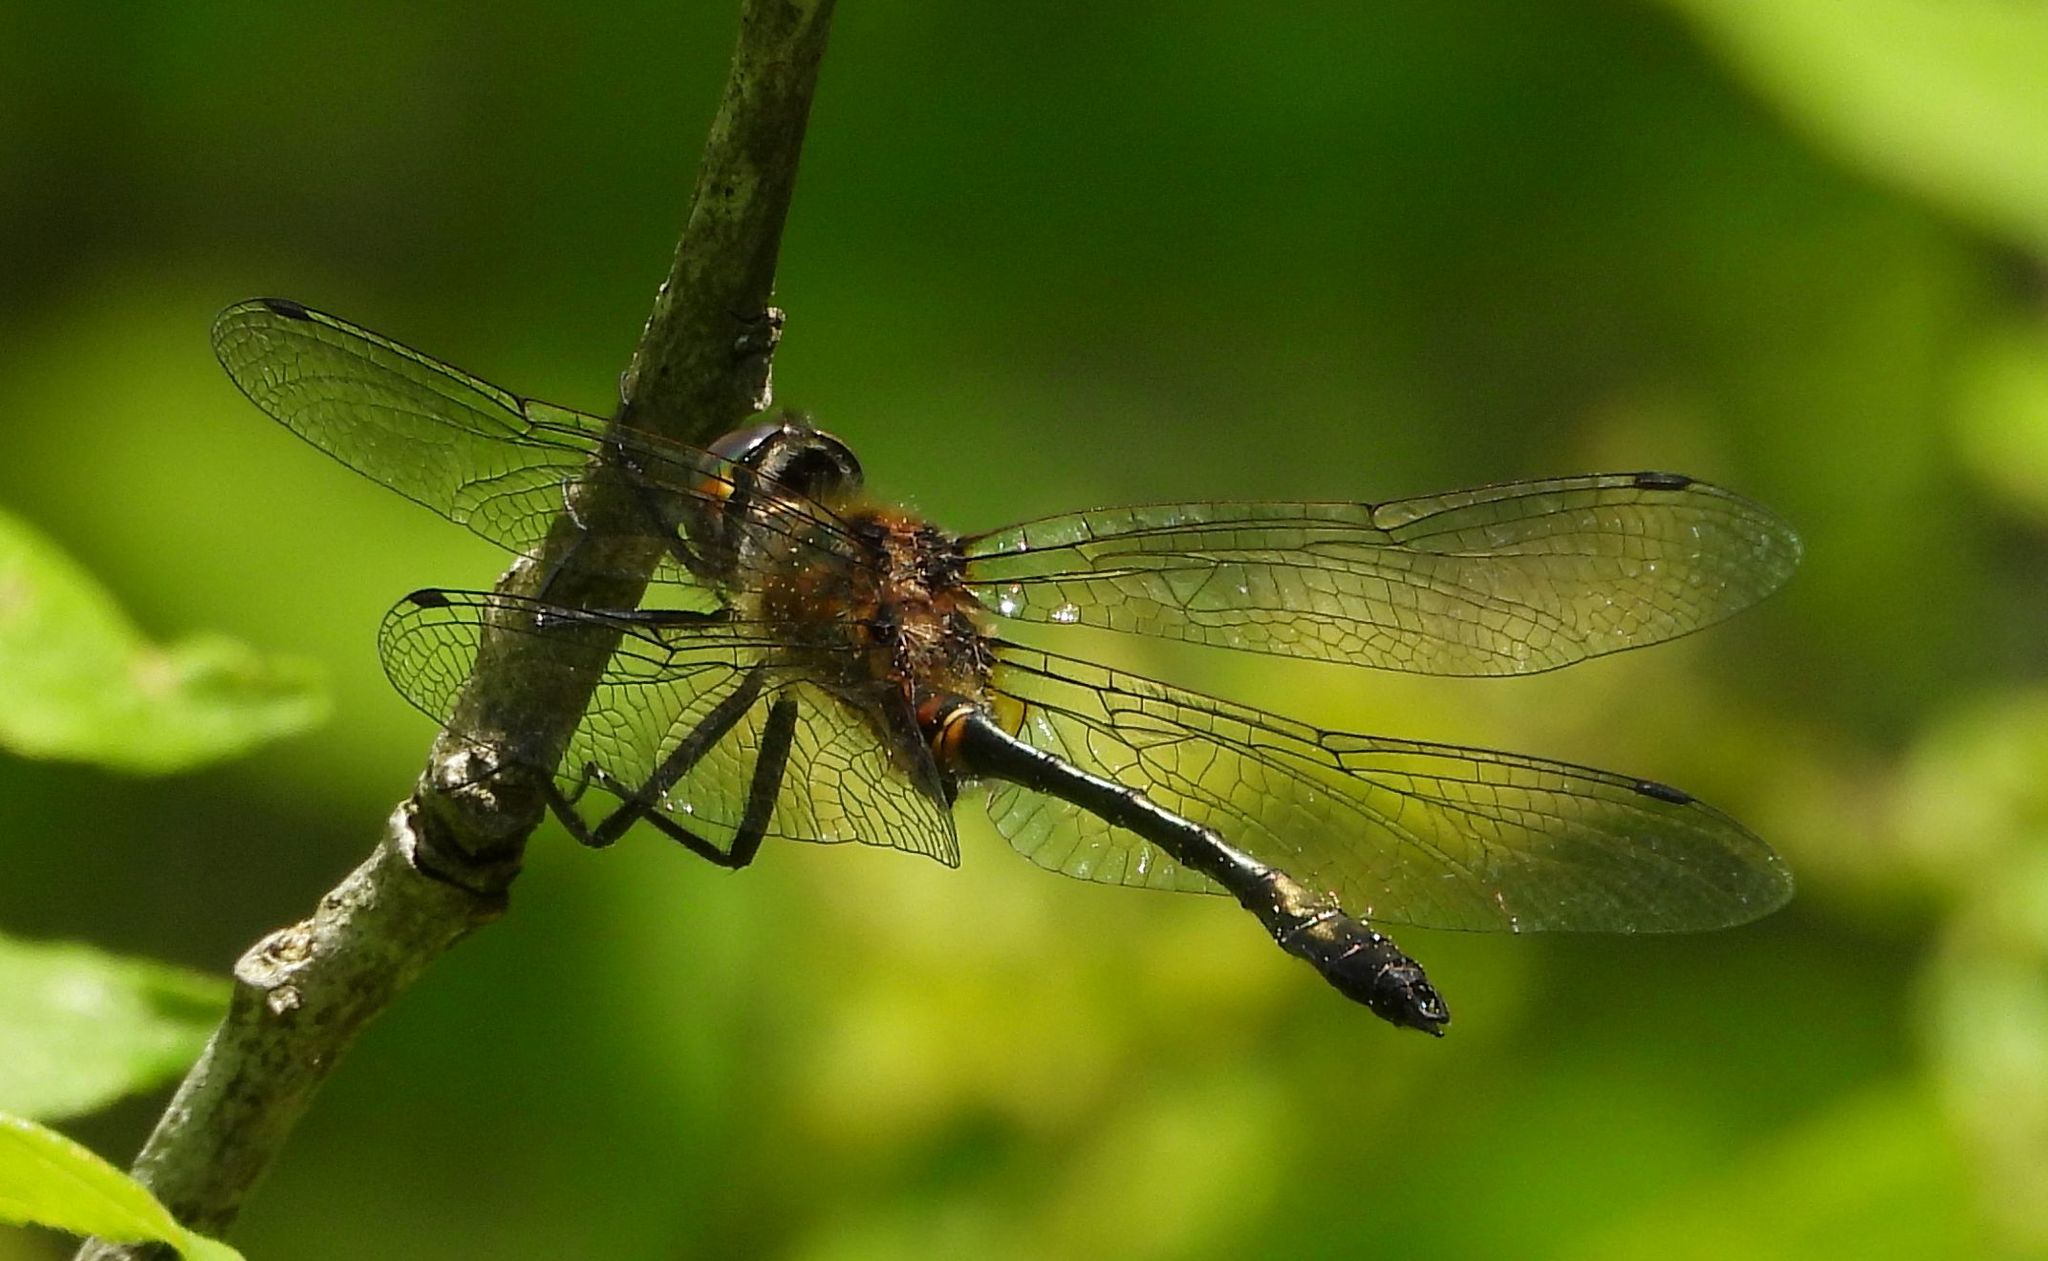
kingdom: Animalia
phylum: Arthropoda
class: Insecta
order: Odonata
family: Corduliidae
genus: Dorocordulia
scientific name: Dorocordulia libera
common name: Racket-tailed emerald
